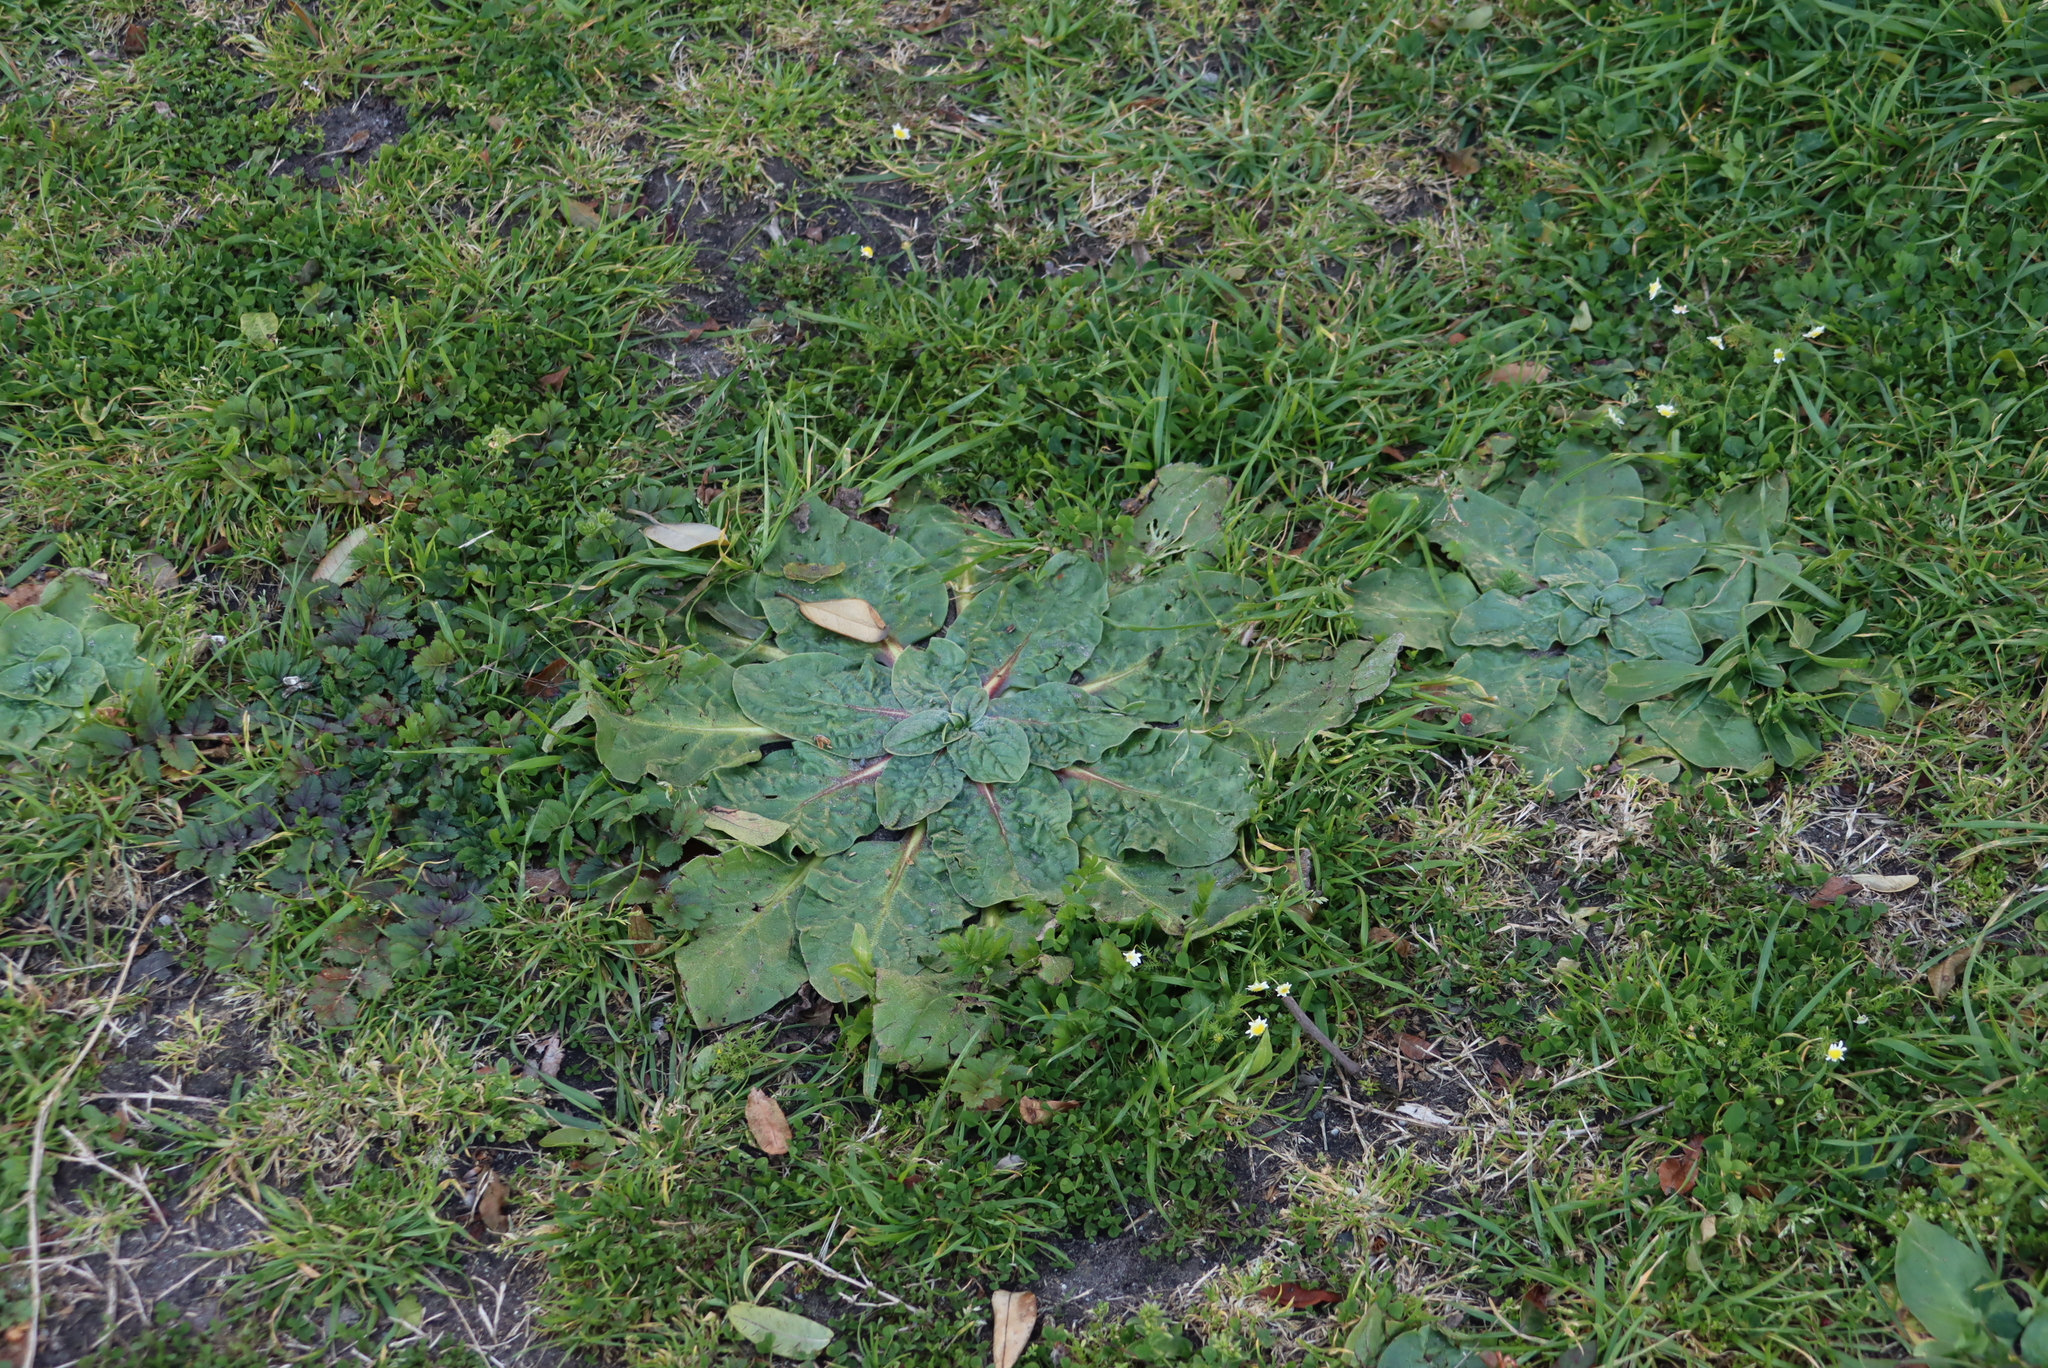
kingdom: Plantae
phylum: Tracheophyta
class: Magnoliopsida
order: Boraginales
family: Boraginaceae
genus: Echium
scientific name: Echium plantagineum
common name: Purple viper's-bugloss
